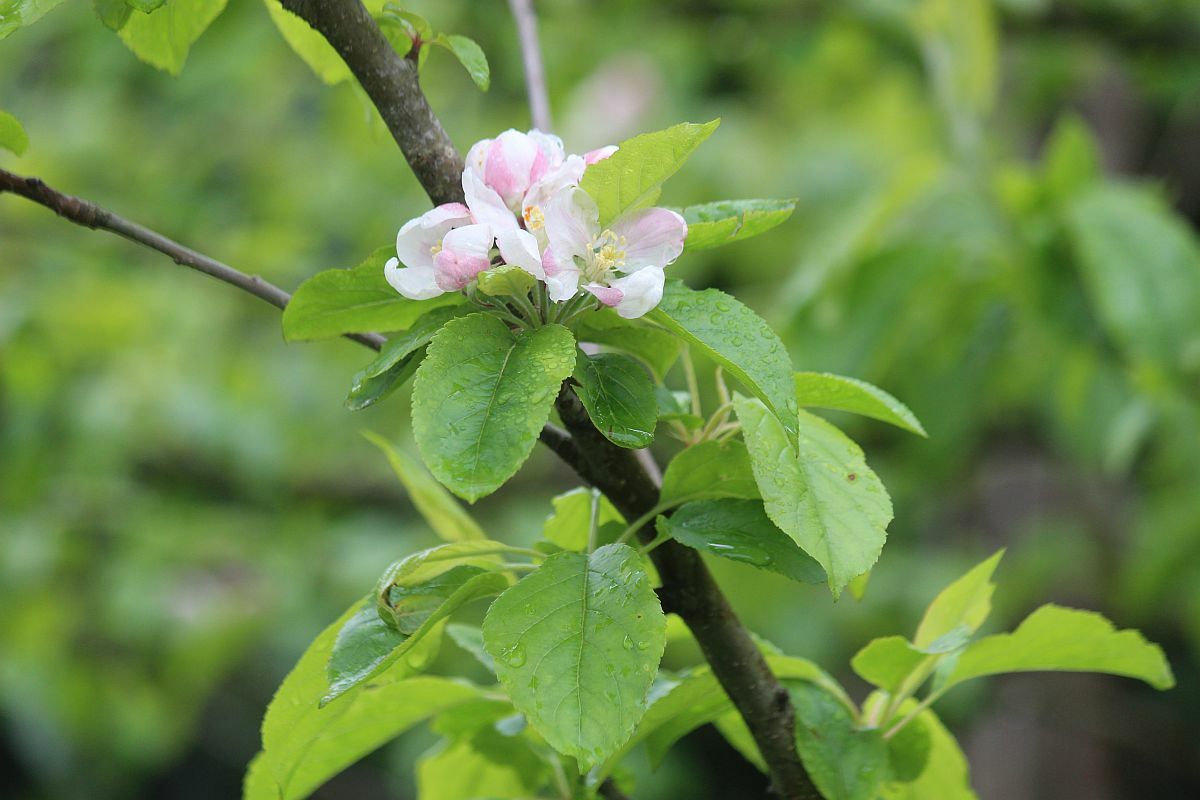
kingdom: Plantae
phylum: Tracheophyta
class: Magnoliopsida
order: Rosales
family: Rosaceae
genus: Malus
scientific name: Malus domestica
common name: Apple
